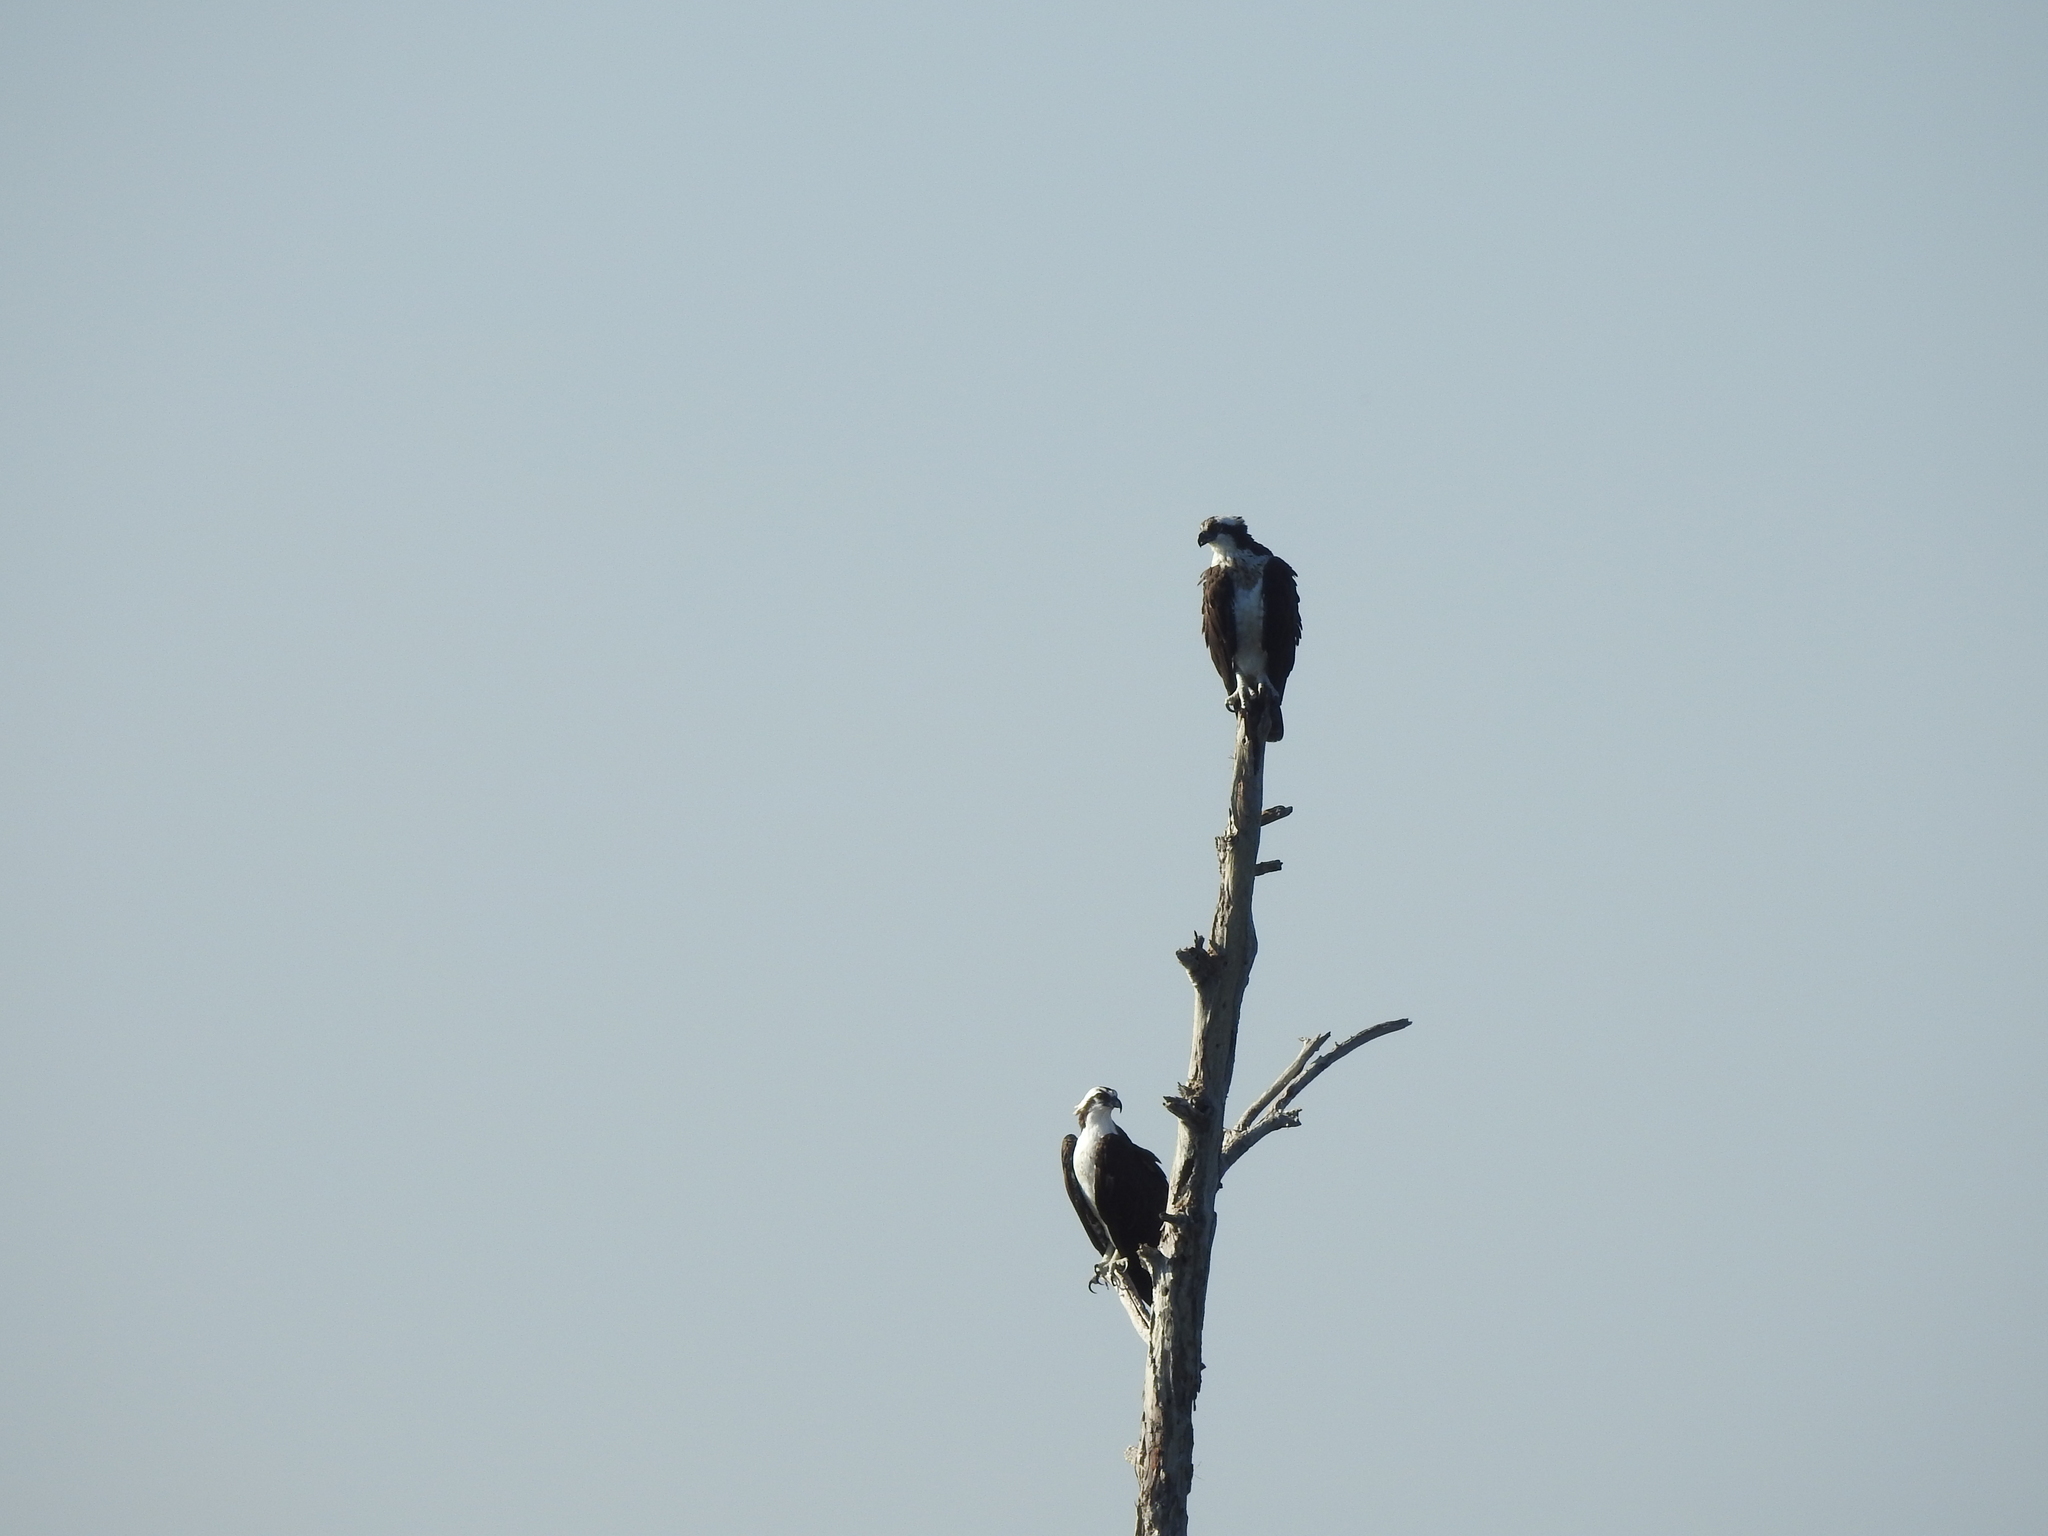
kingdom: Animalia
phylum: Chordata
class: Aves
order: Accipitriformes
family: Pandionidae
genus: Pandion
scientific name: Pandion haliaetus
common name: Osprey
